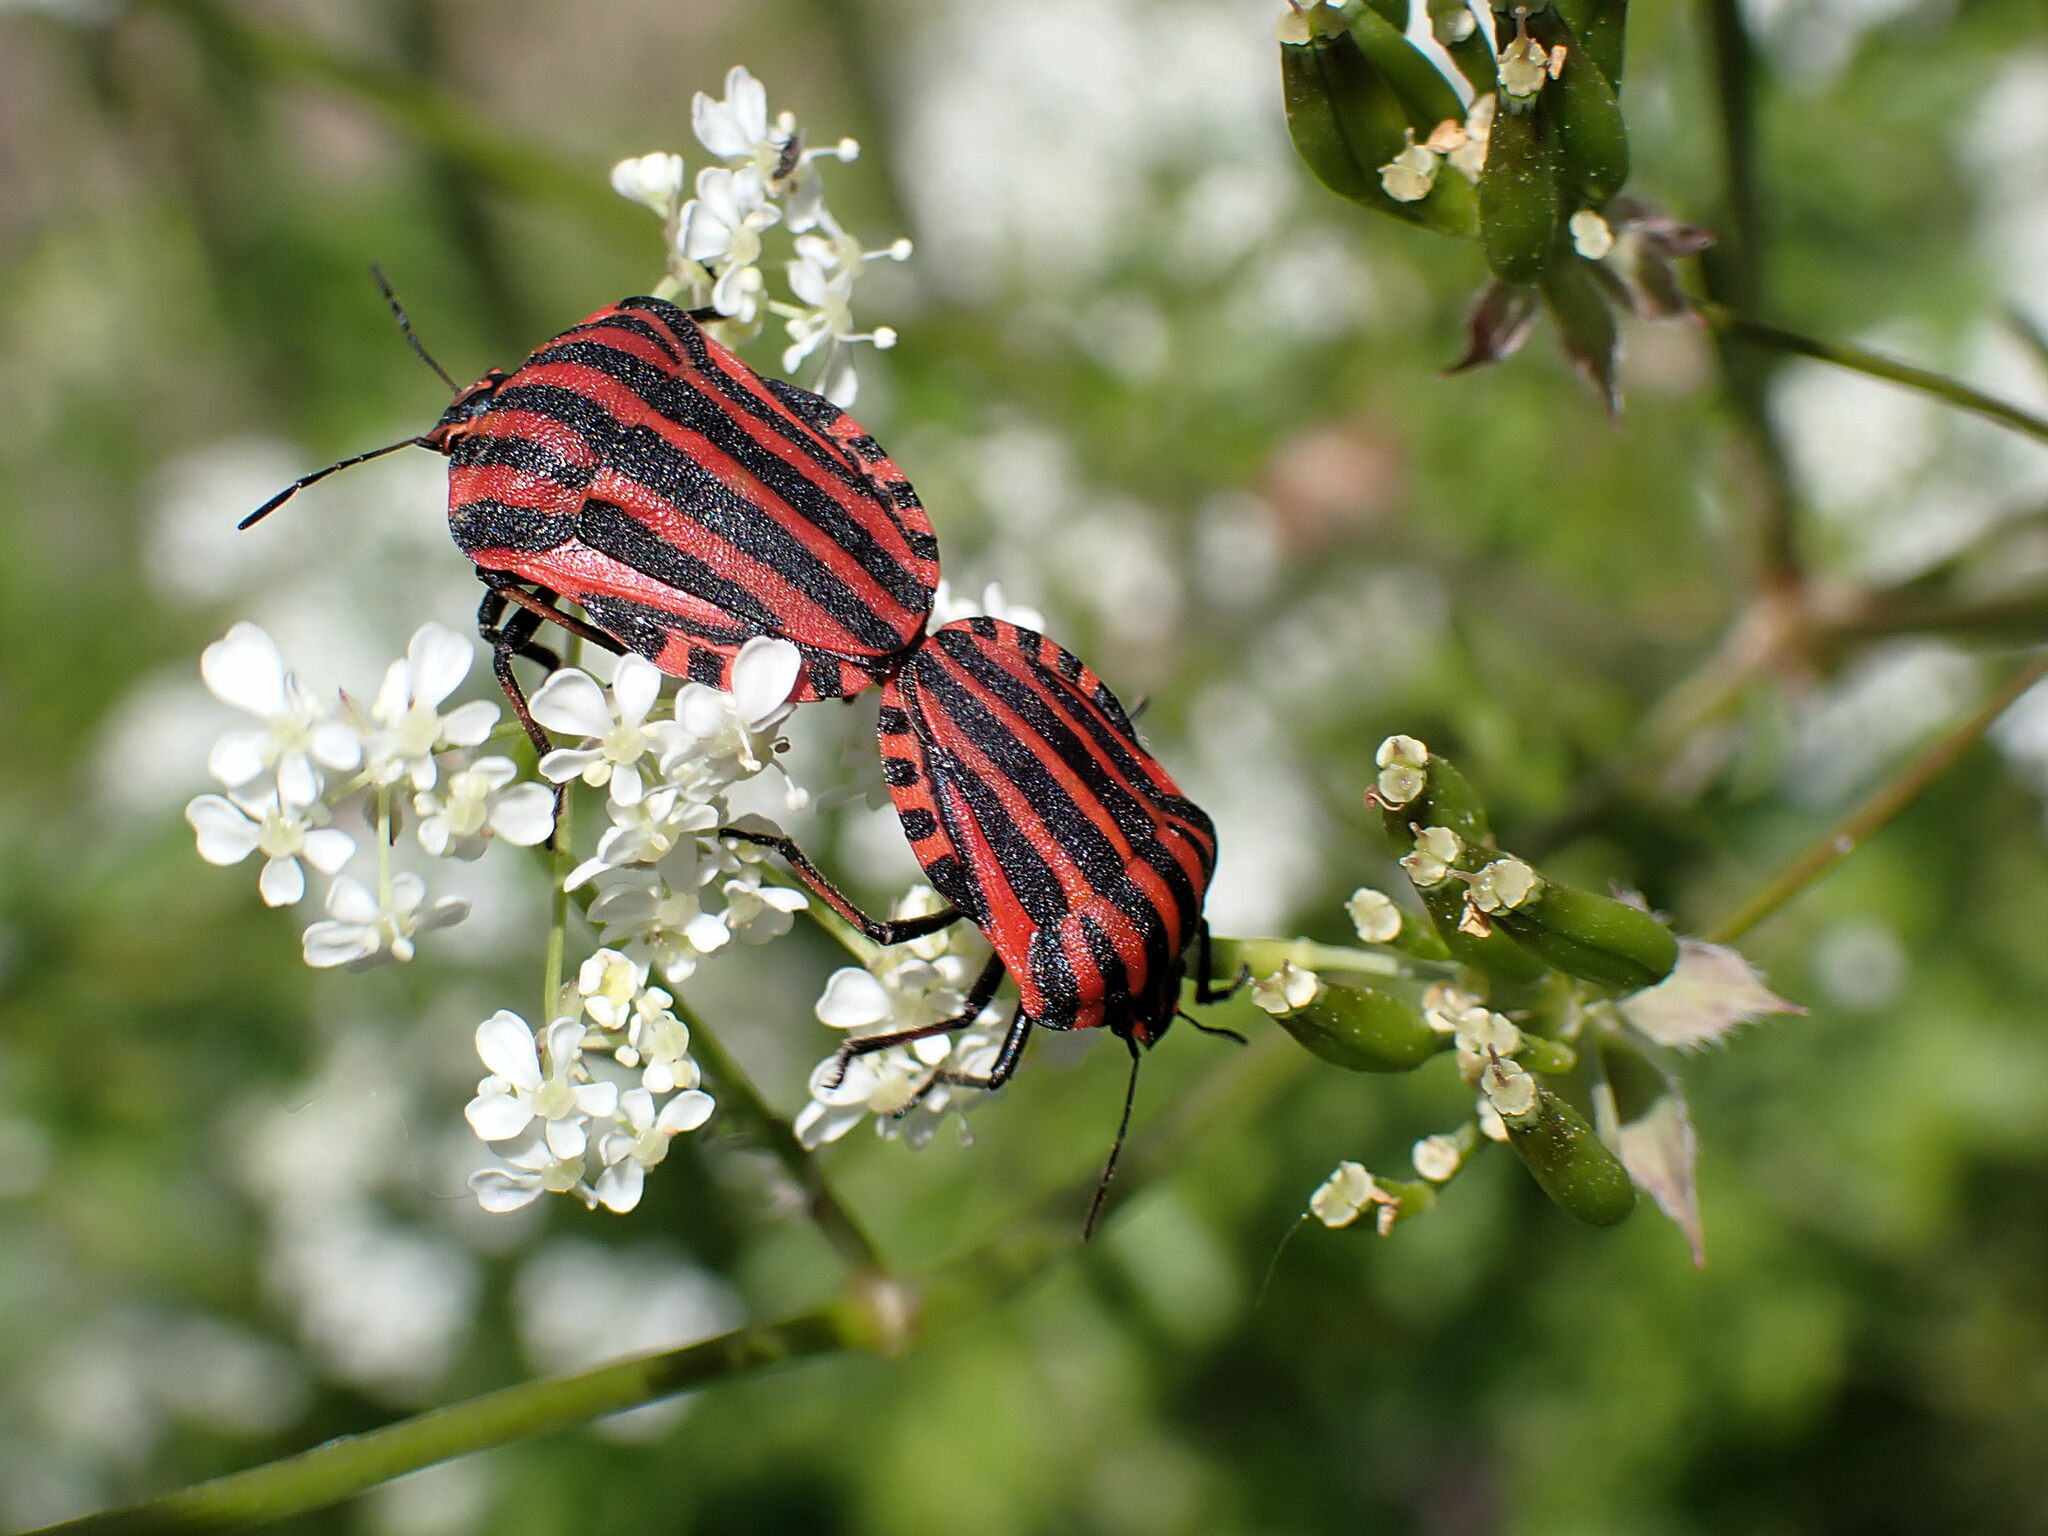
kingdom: Animalia
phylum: Arthropoda
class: Insecta
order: Hemiptera
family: Pentatomidae
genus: Graphosoma
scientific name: Graphosoma italicum
